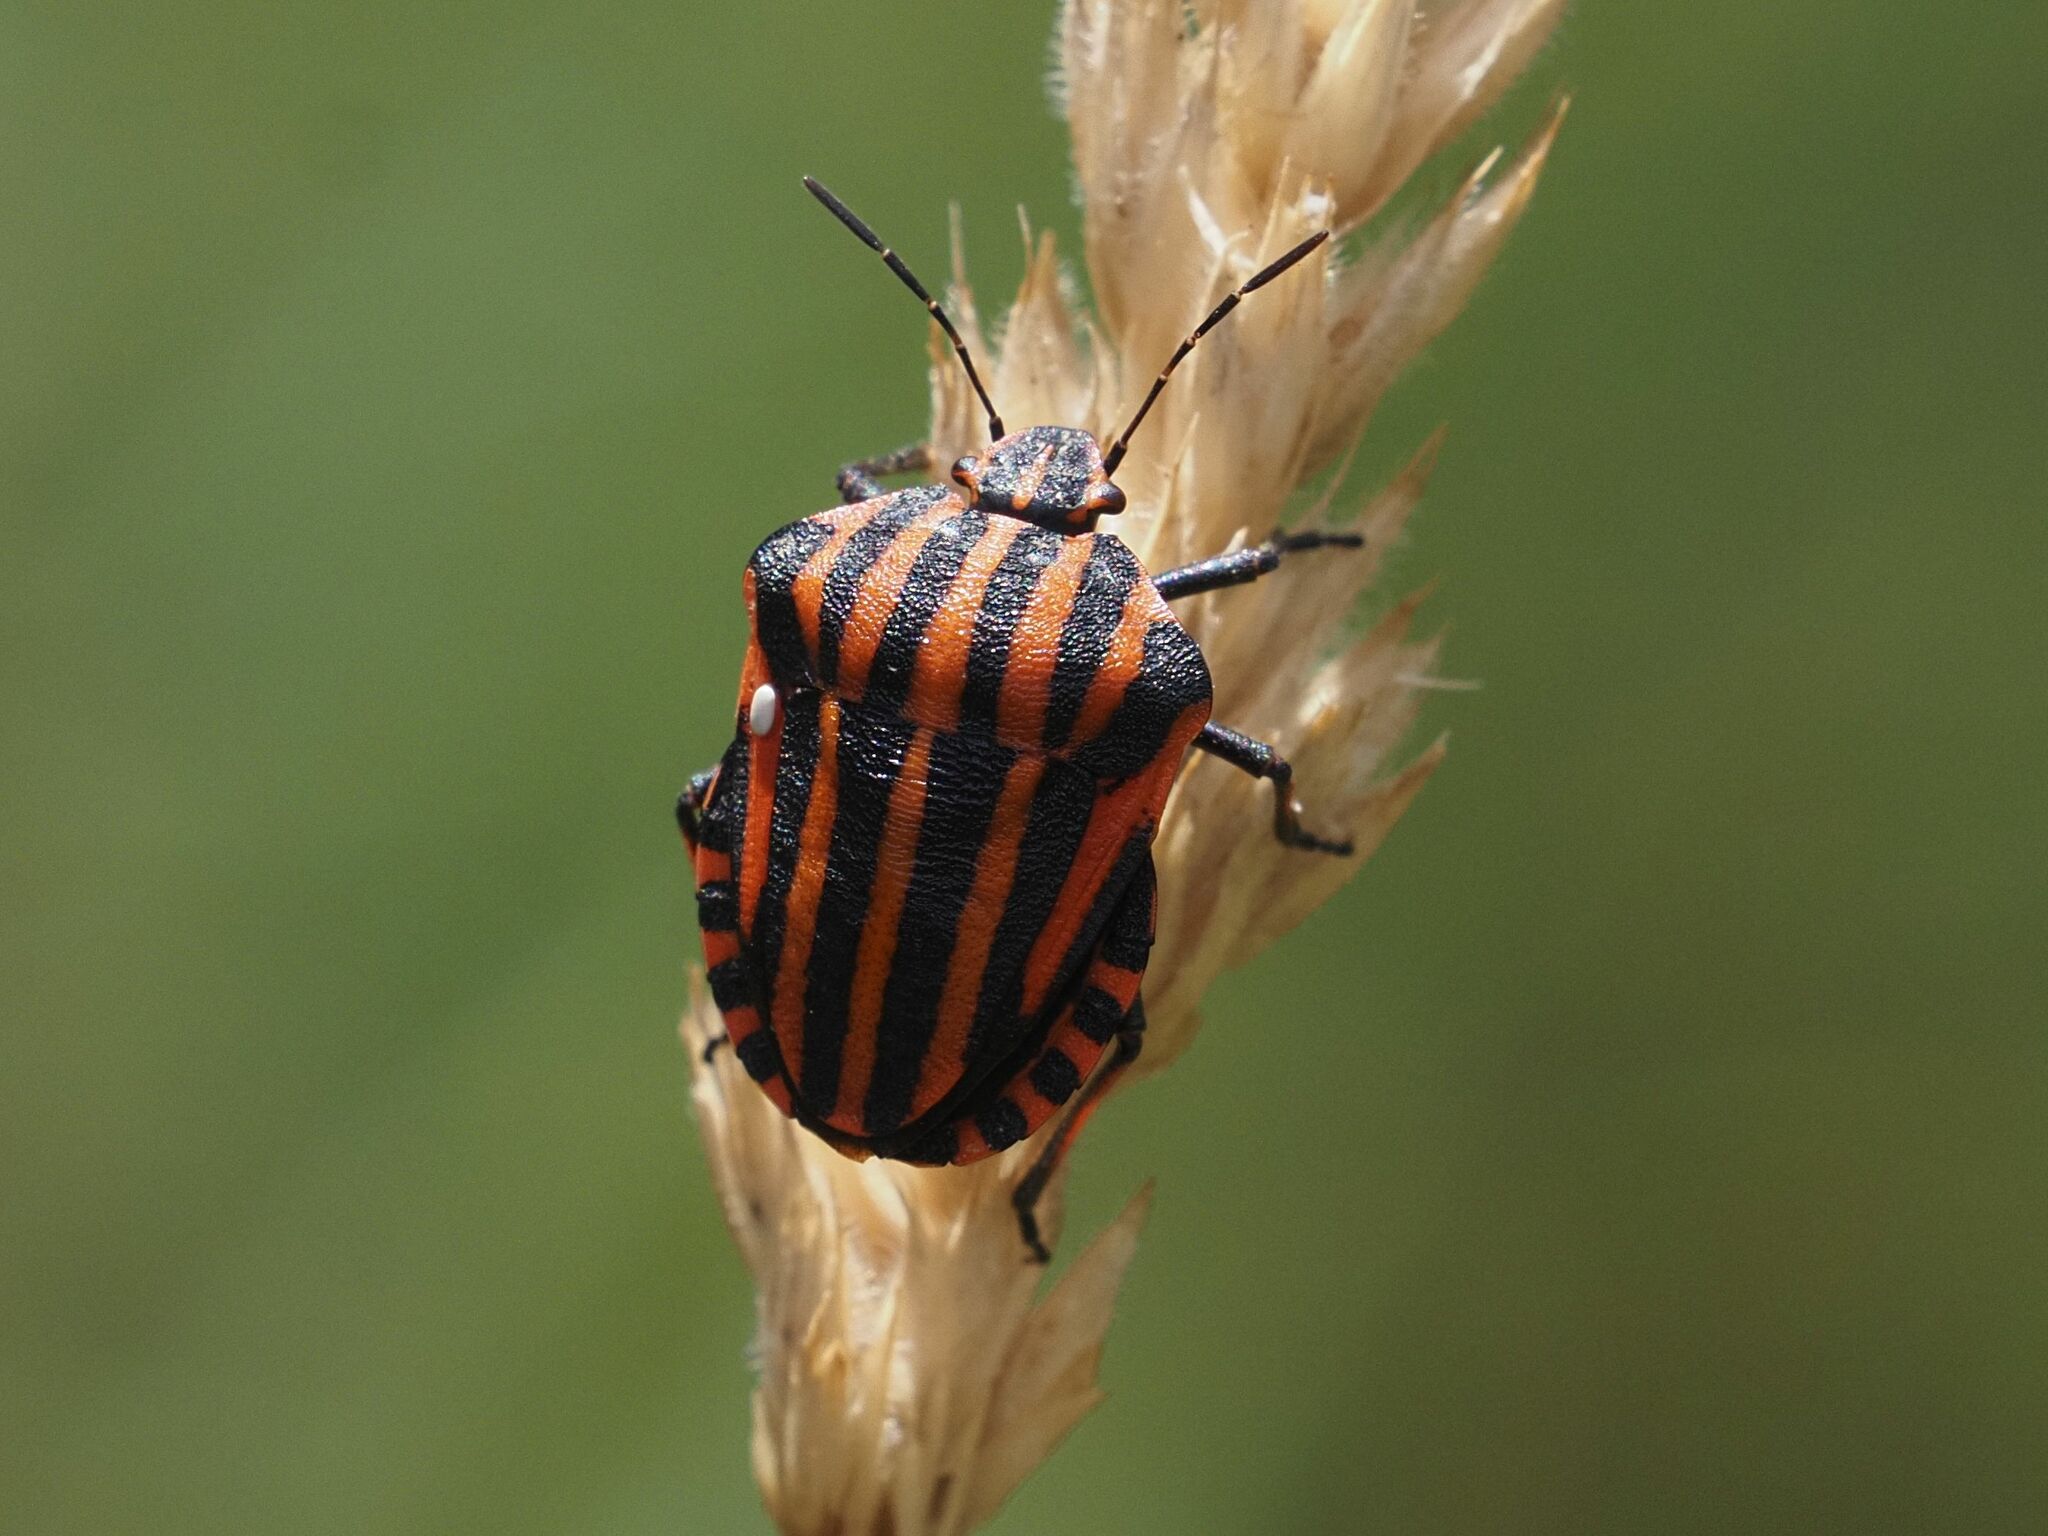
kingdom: Animalia
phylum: Arthropoda
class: Insecta
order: Hemiptera
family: Pentatomidae
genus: Graphosoma
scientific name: Graphosoma italicum
